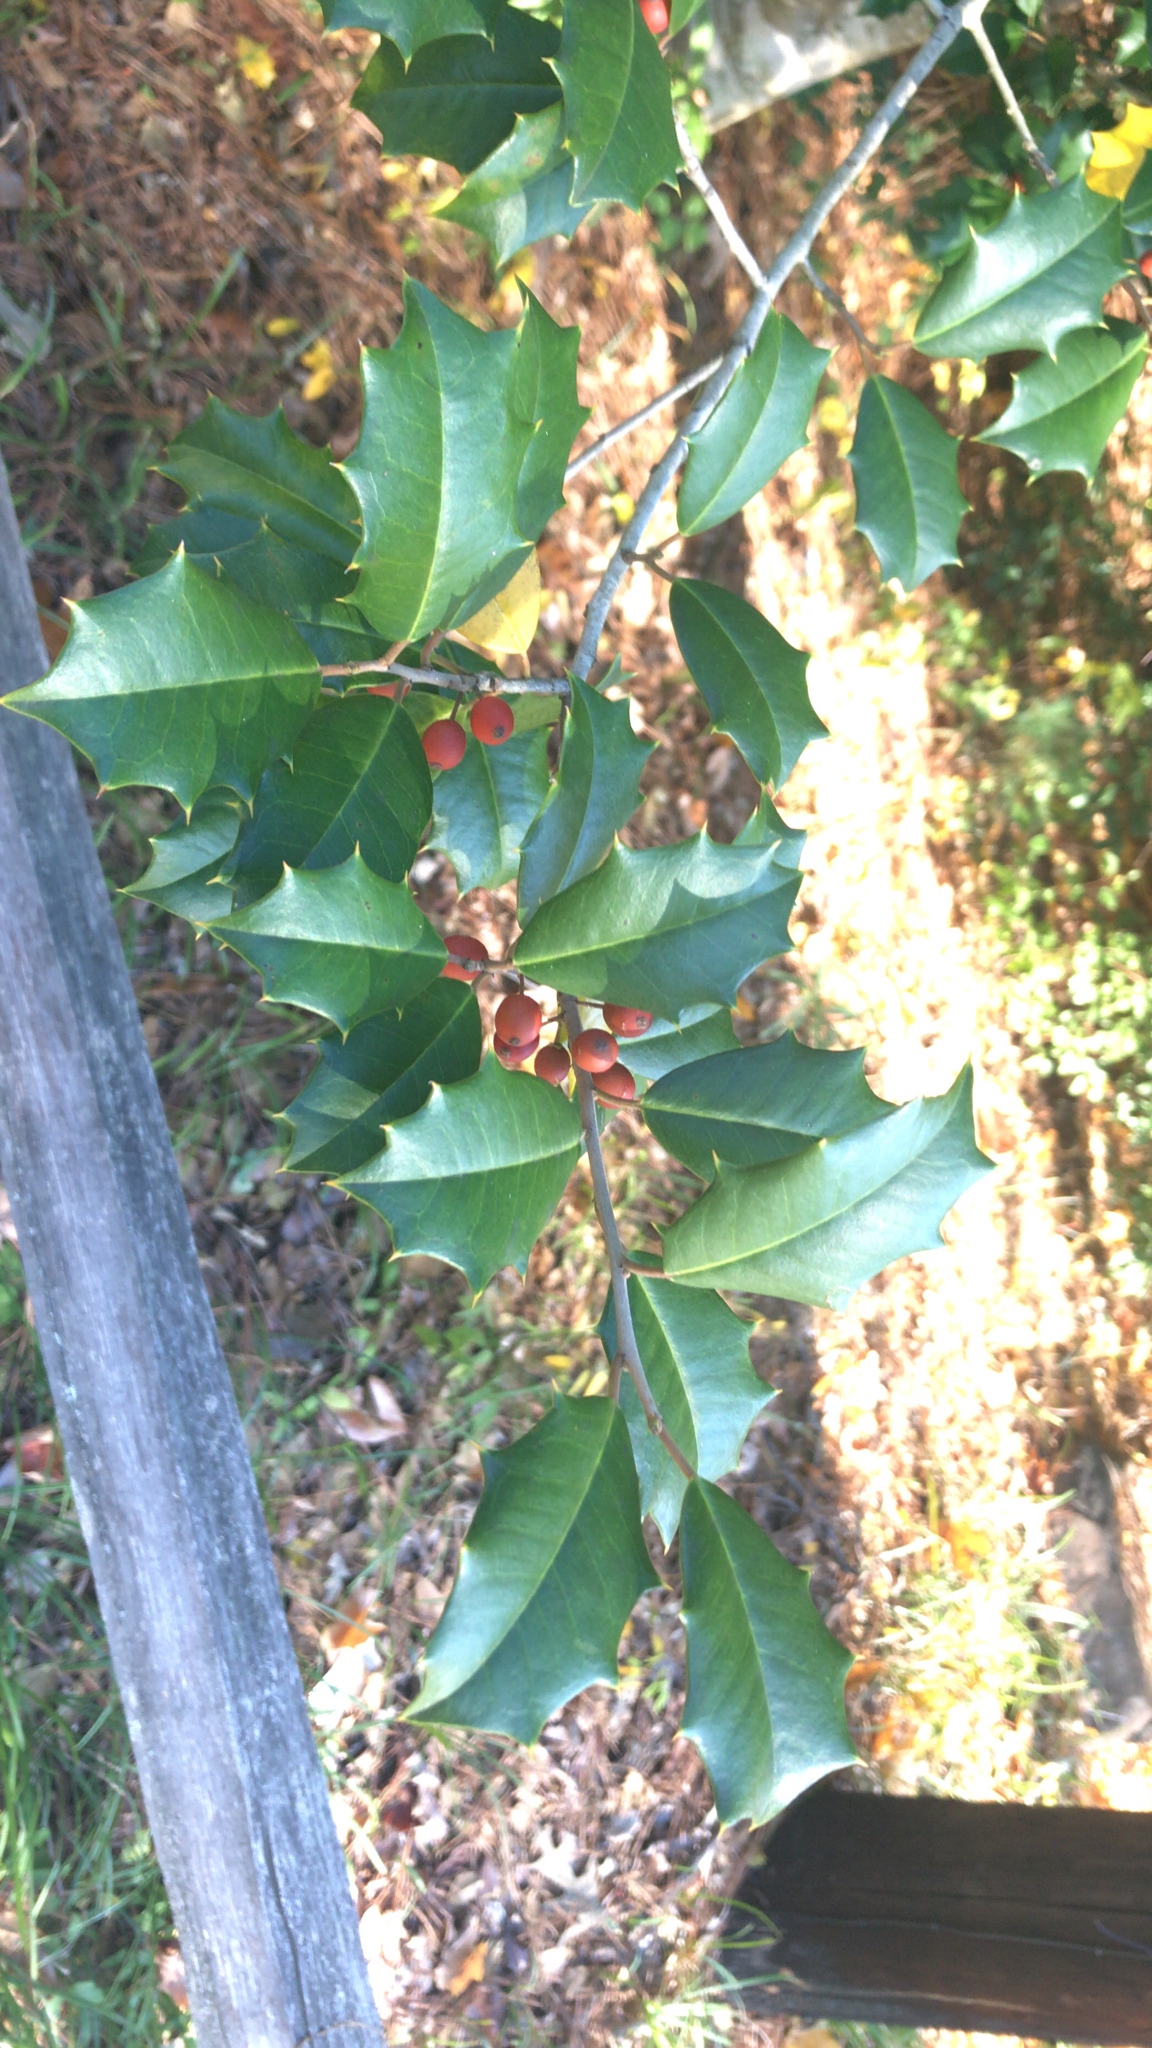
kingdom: Plantae
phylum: Tracheophyta
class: Magnoliopsida
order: Aquifoliales
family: Aquifoliaceae
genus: Ilex
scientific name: Ilex opaca
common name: American holly
